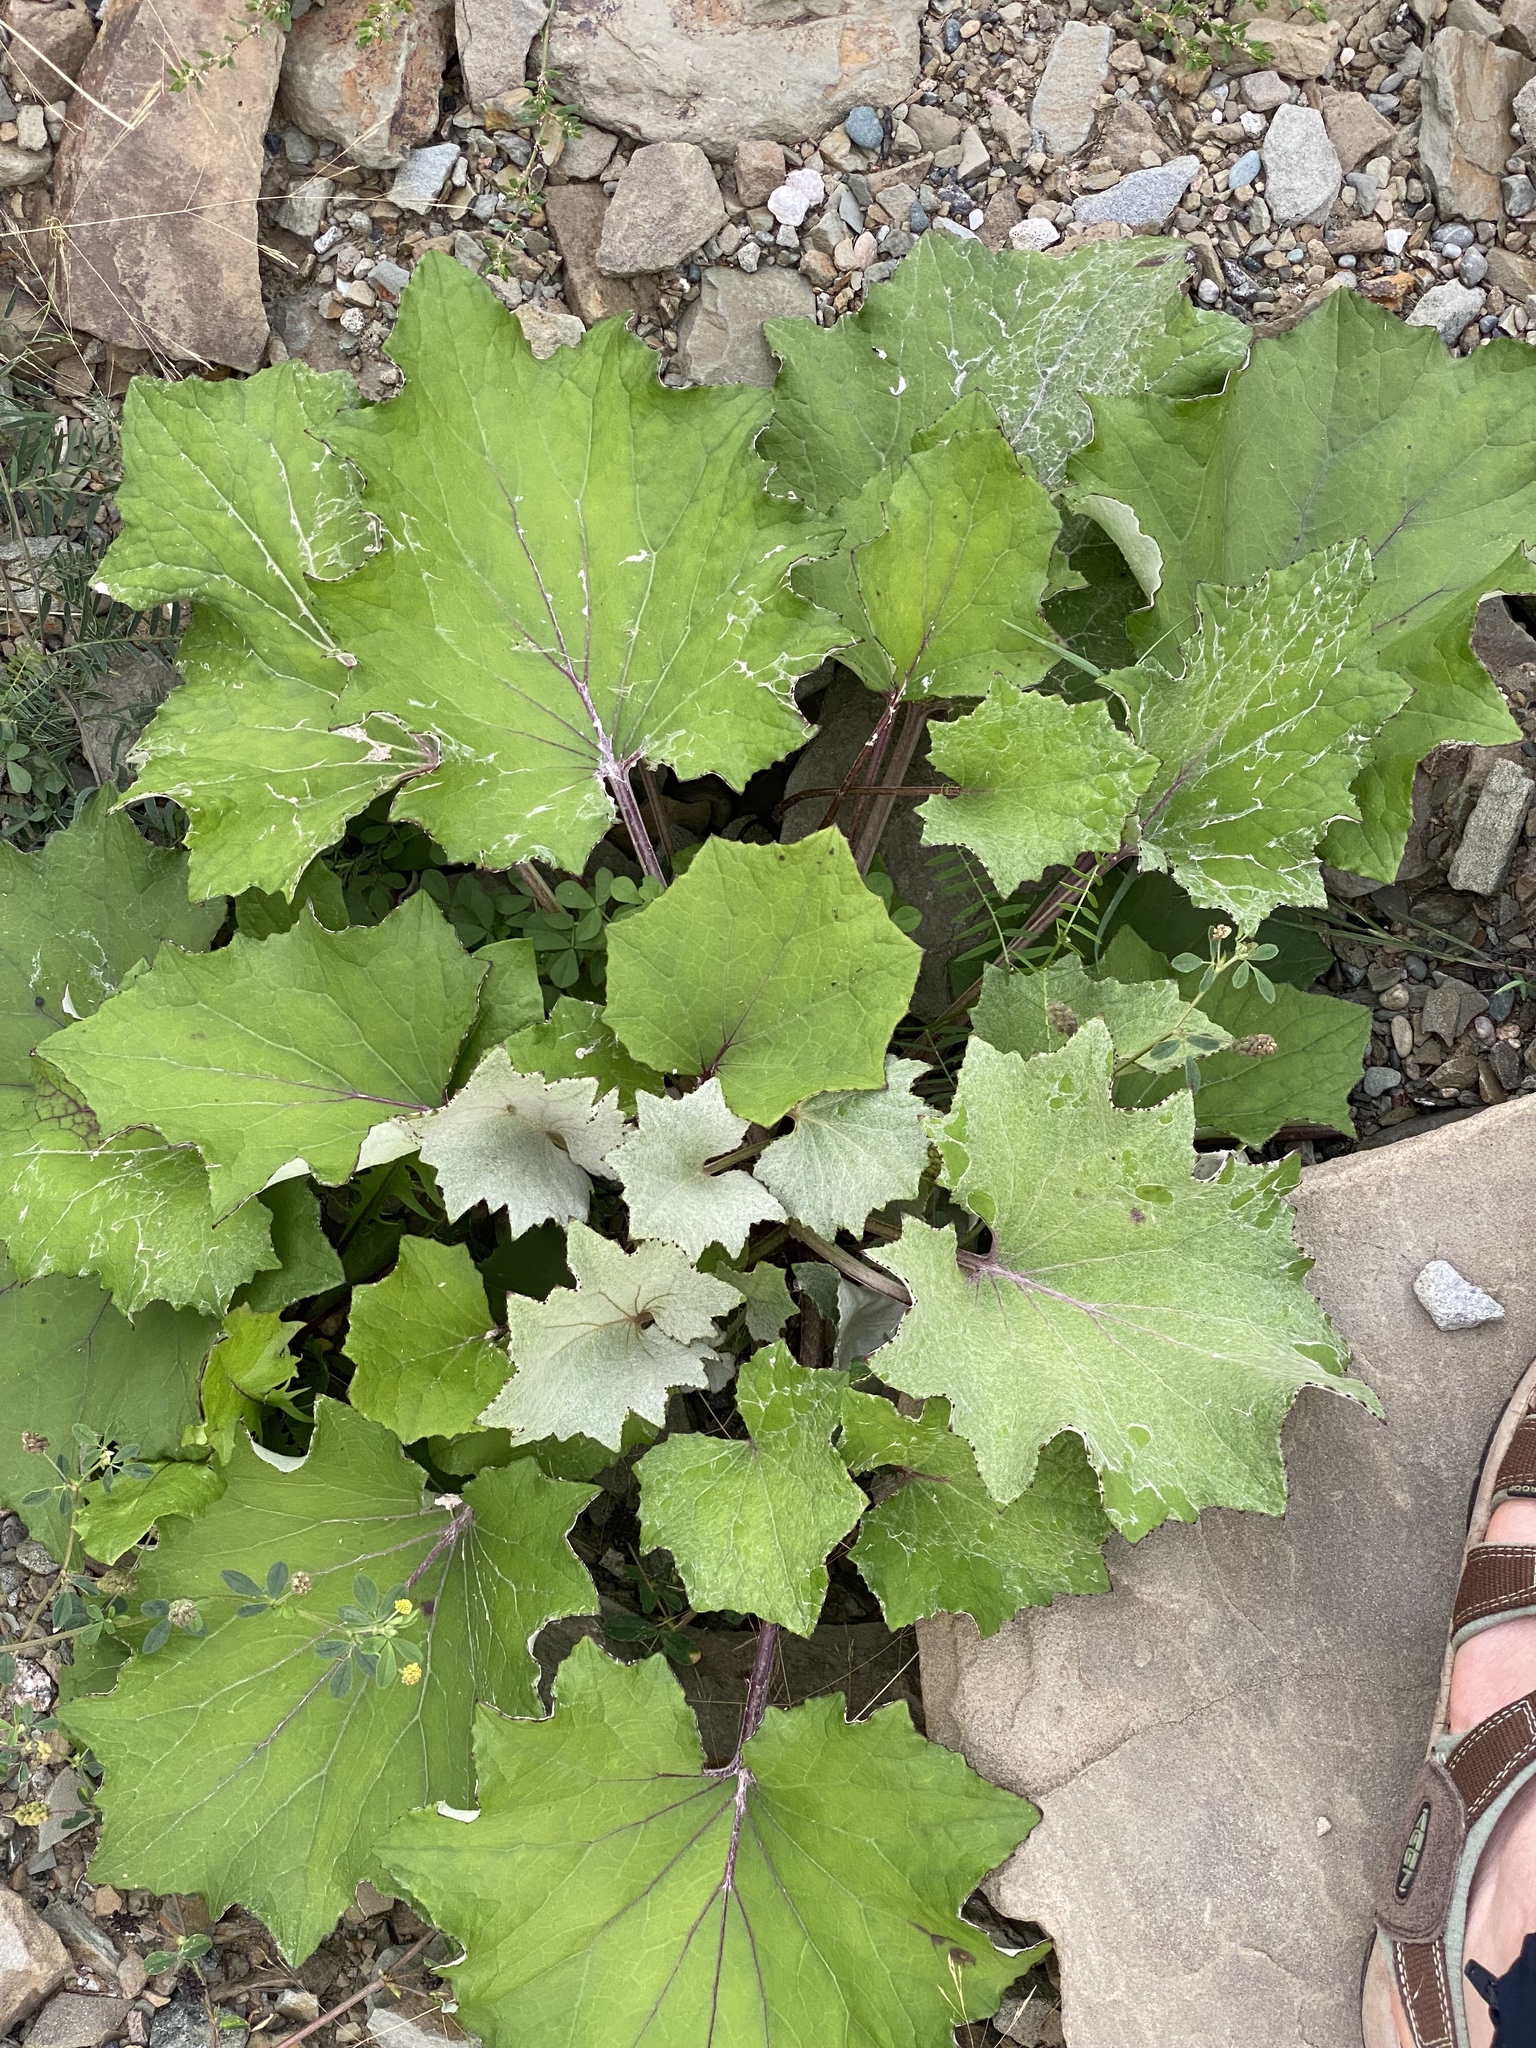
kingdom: Plantae
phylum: Tracheophyta
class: Magnoliopsida
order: Asterales
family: Asteraceae
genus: Tussilago
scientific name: Tussilago farfara
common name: Coltsfoot
